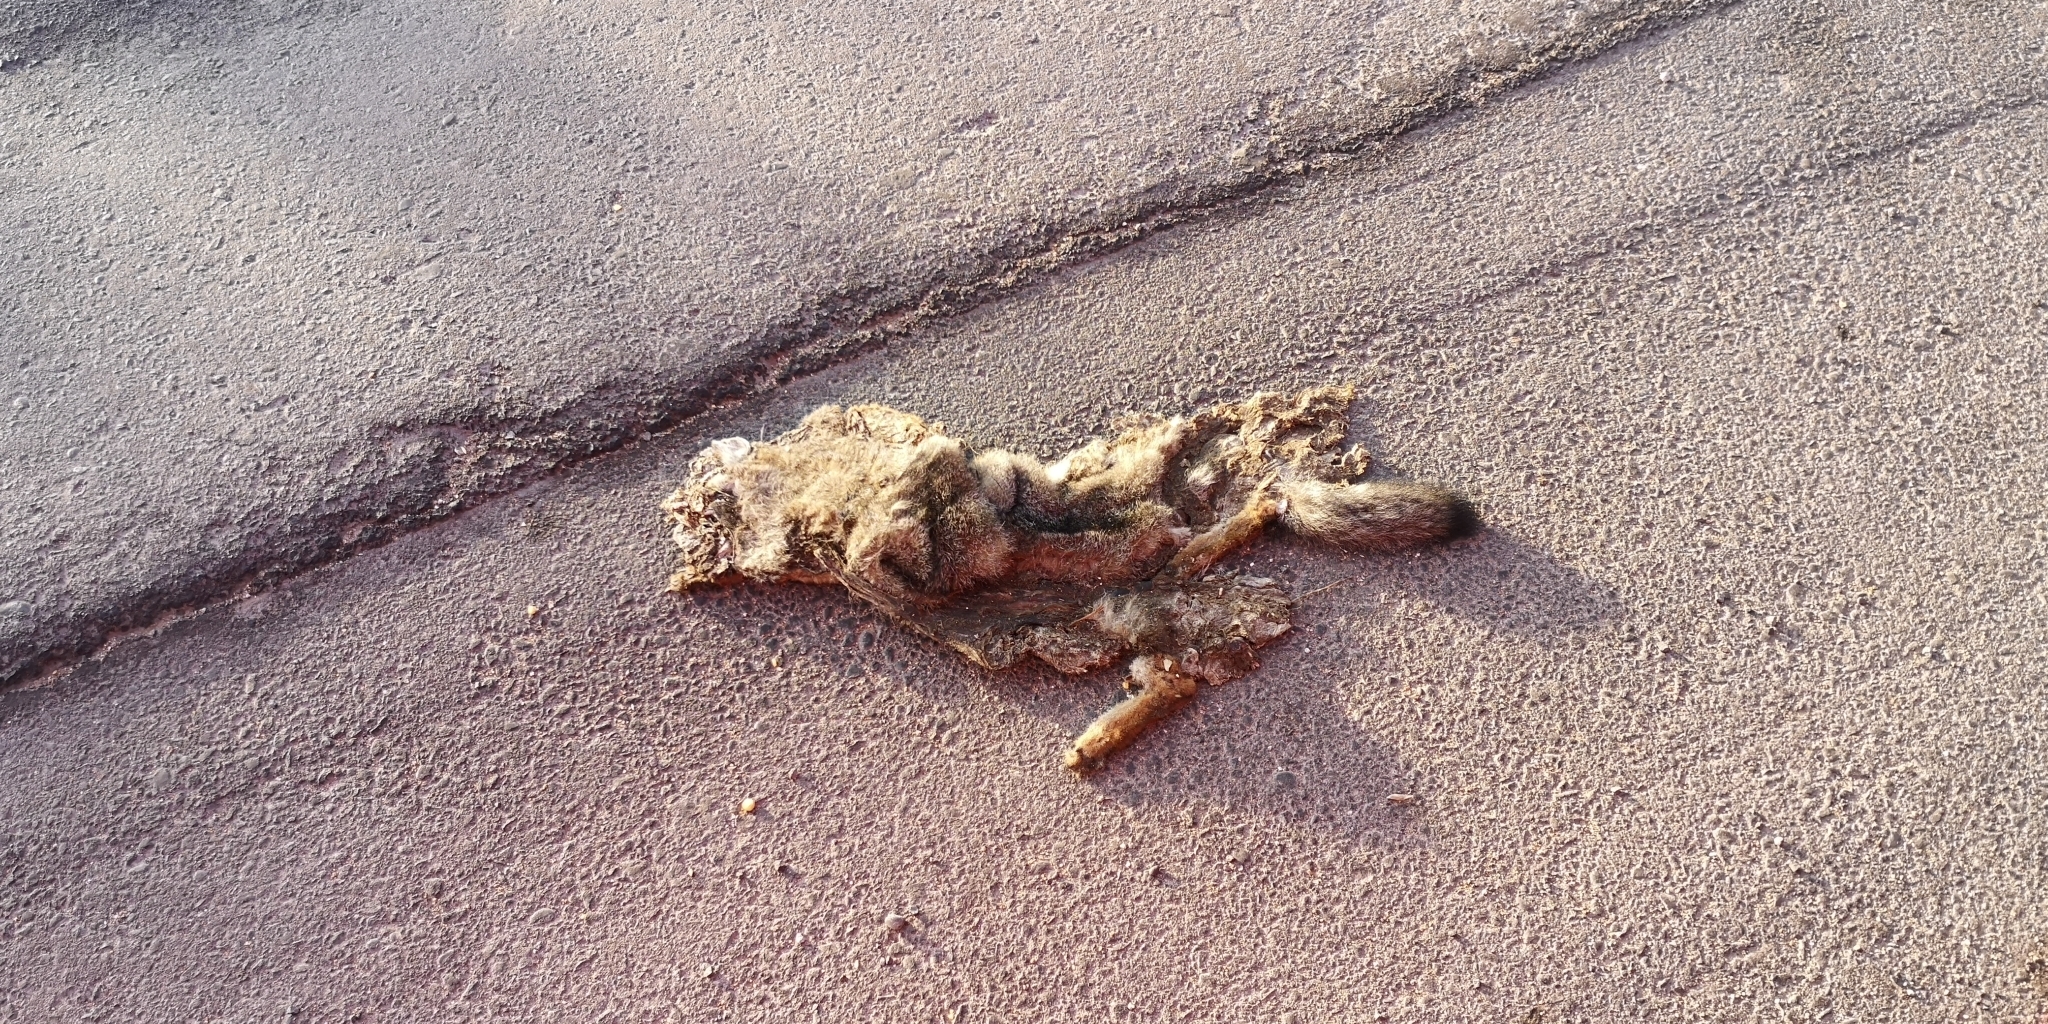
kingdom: Animalia
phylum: Chordata
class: Mammalia
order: Carnivora
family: Canidae
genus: Lycalopex
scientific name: Lycalopex gymnocercus
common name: Pampas fox
